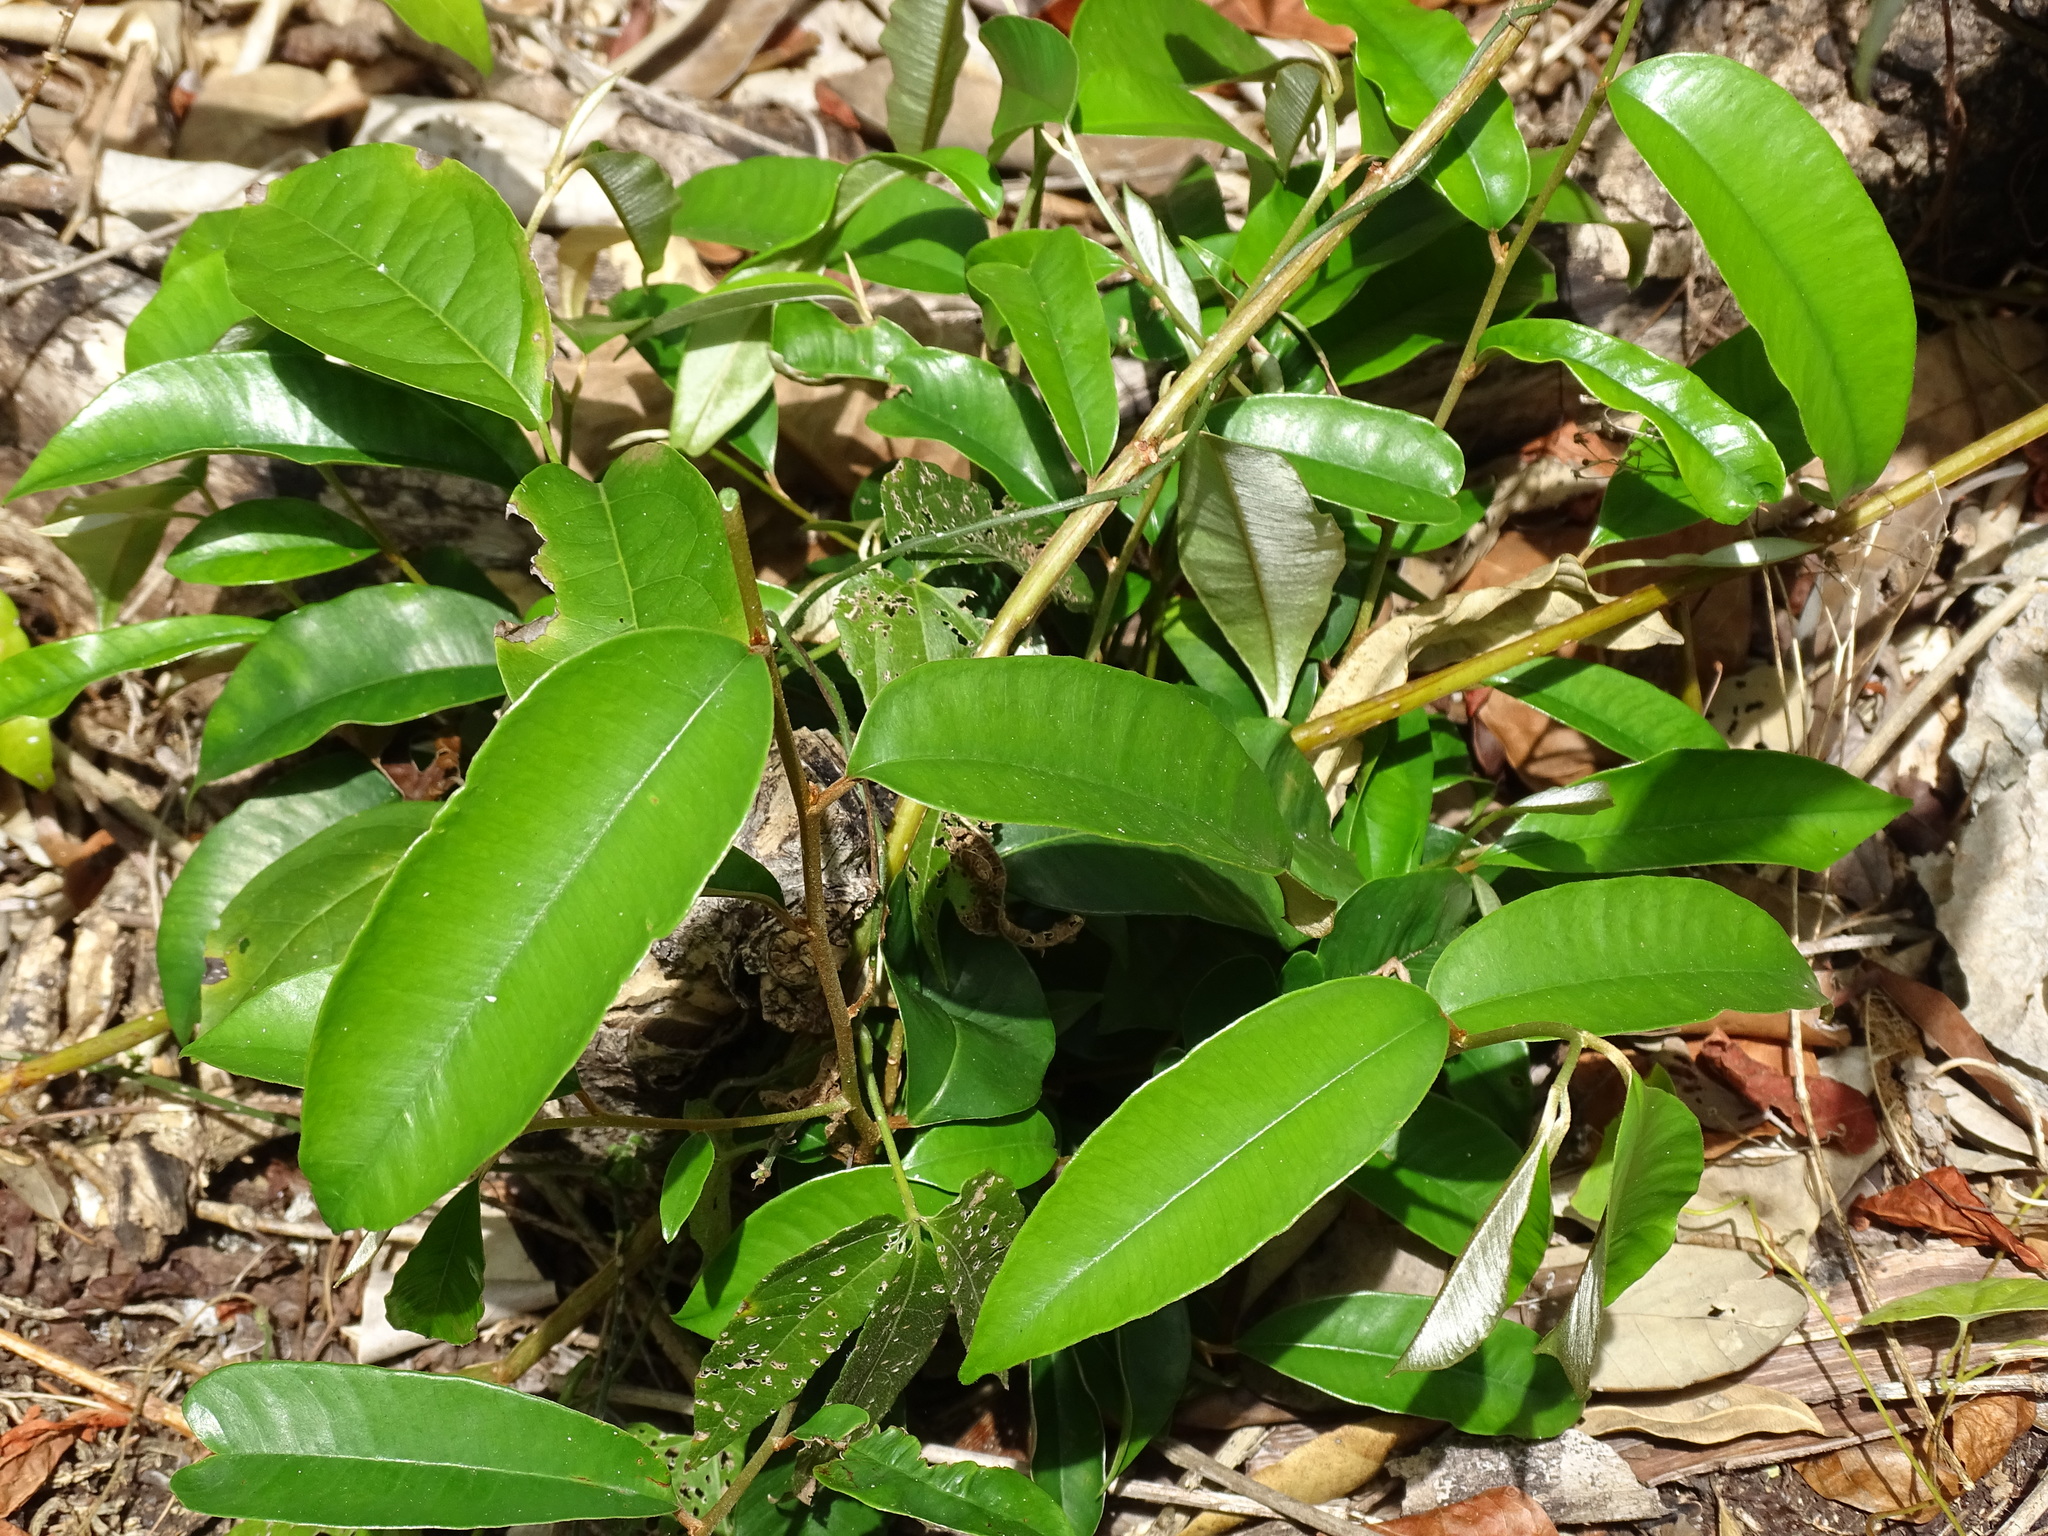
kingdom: Plantae
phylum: Tracheophyta
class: Magnoliopsida
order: Ericales
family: Sapotaceae
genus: Chrysophyllum
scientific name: Chrysophyllum mexicanum
